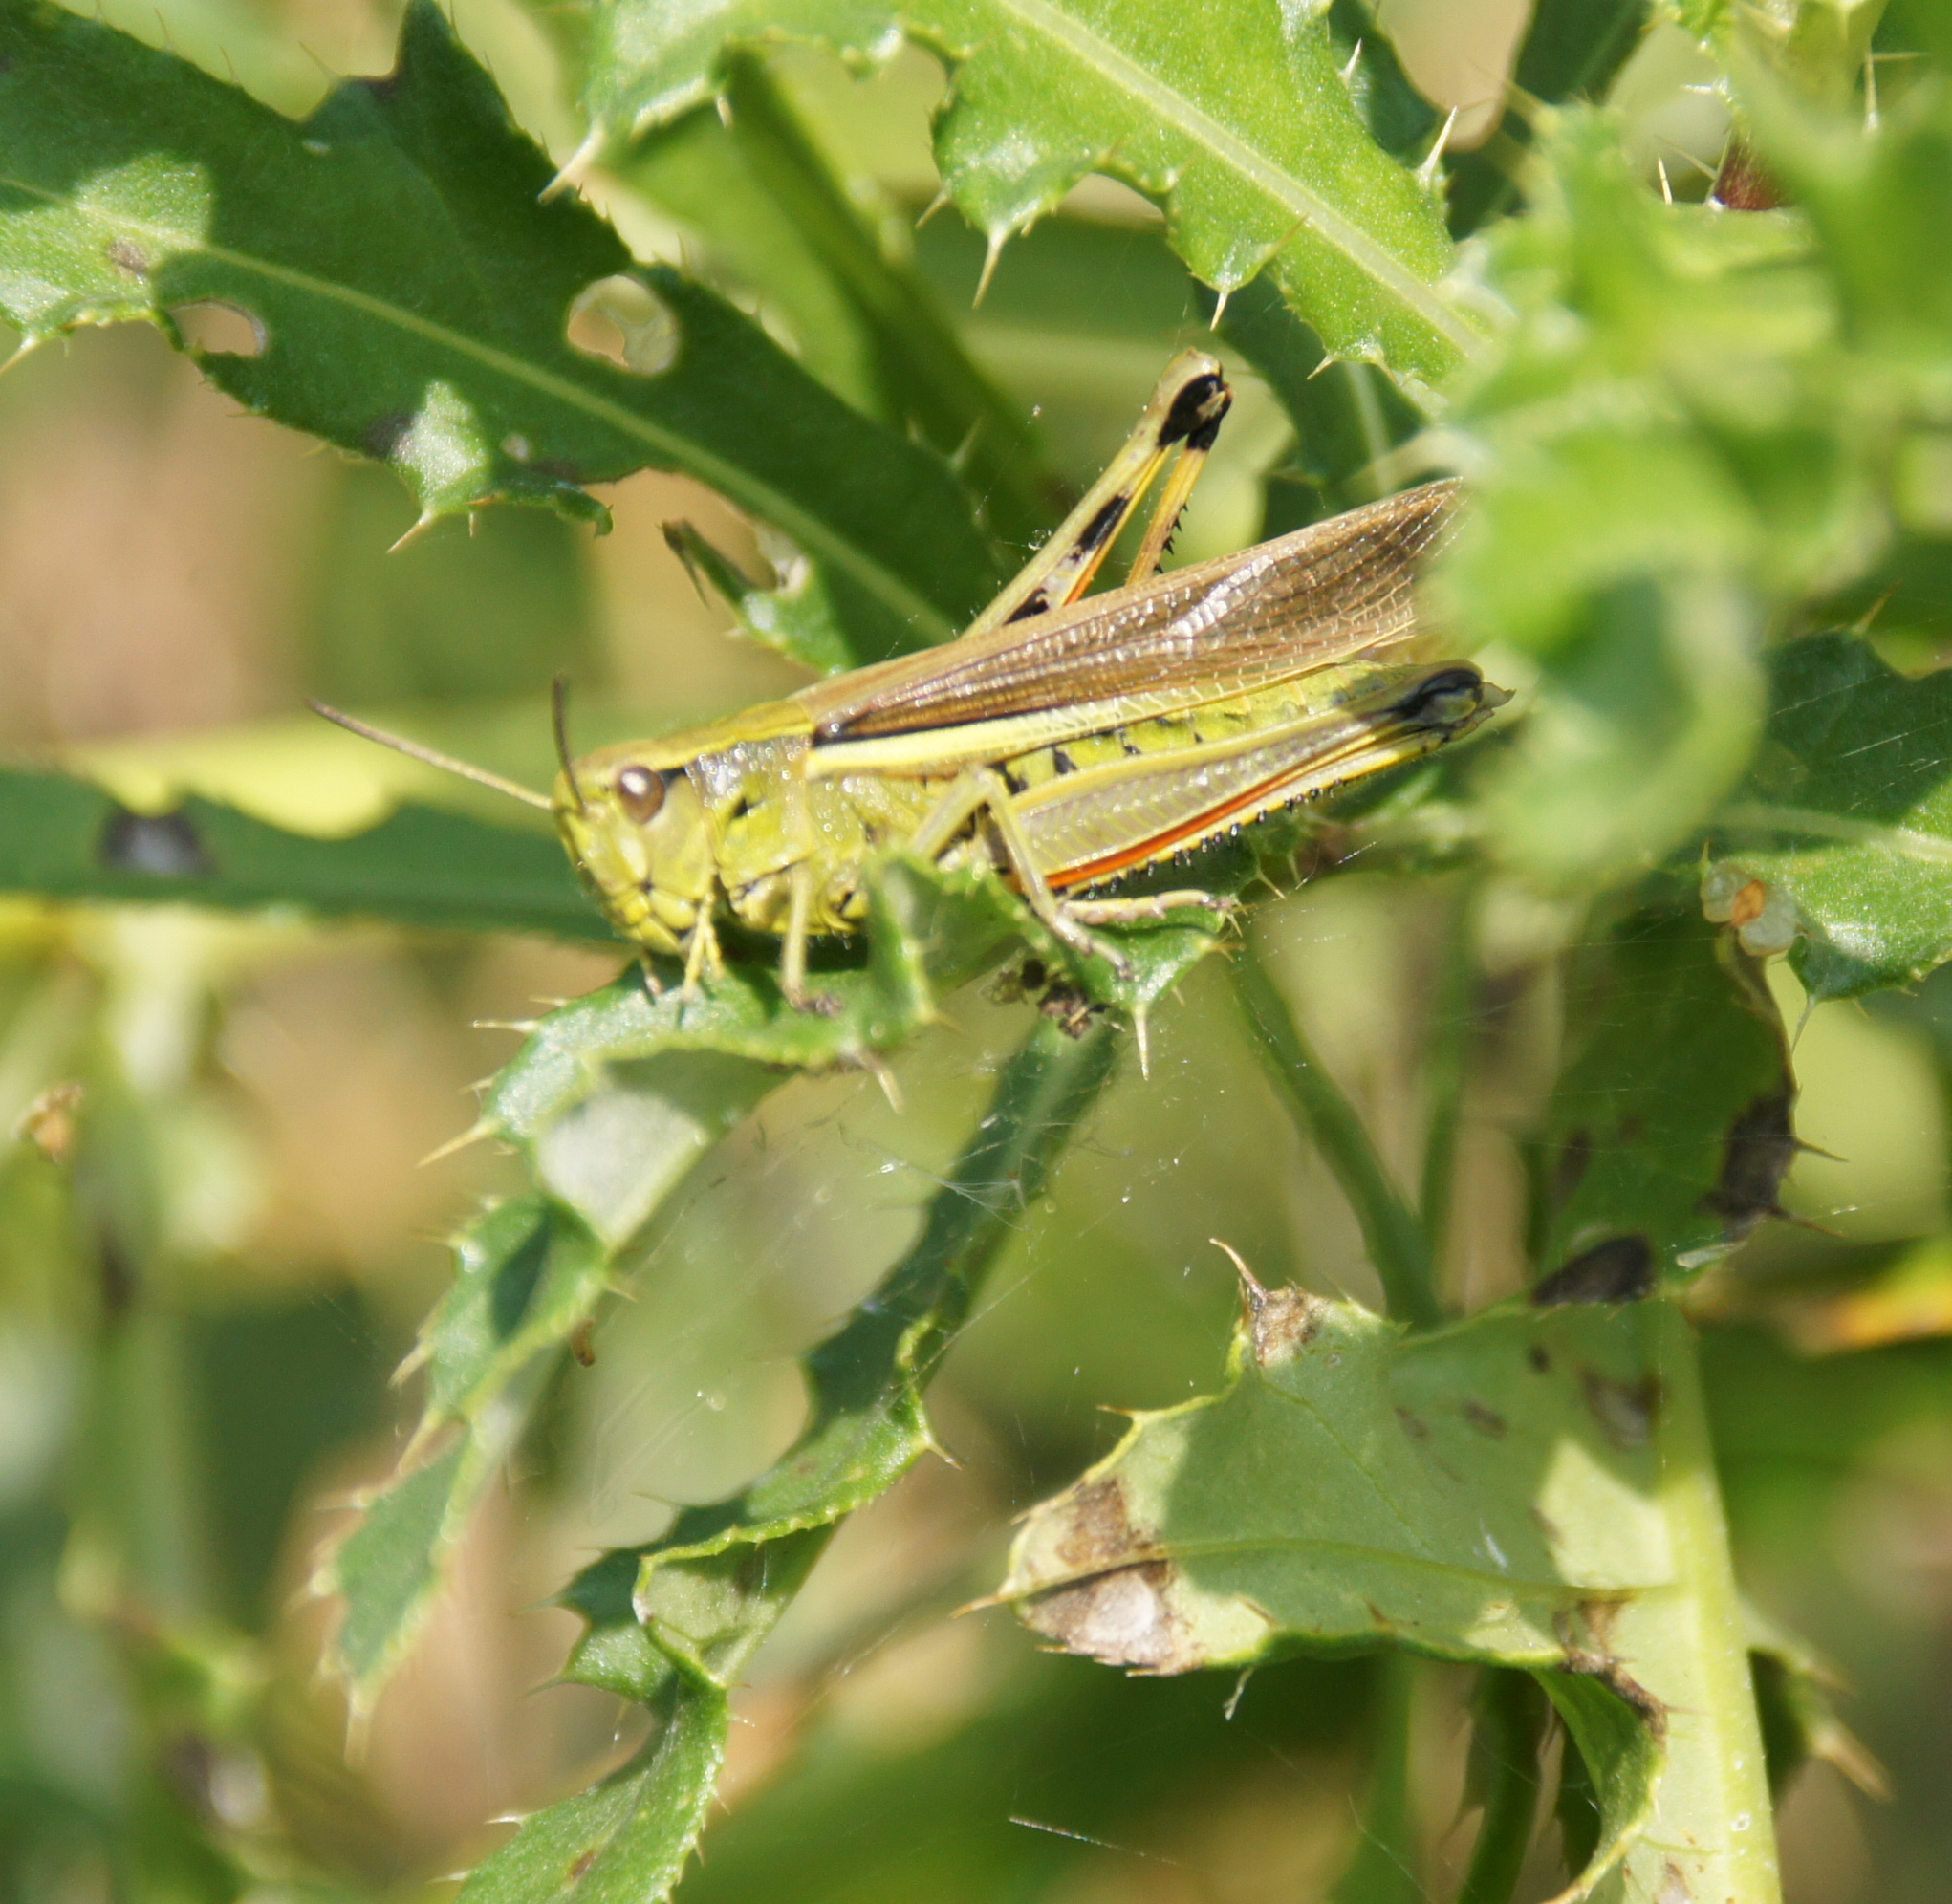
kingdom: Animalia
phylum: Arthropoda
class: Insecta
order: Orthoptera
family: Acrididae
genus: Stethophyma
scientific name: Stethophyma grossum
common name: Large marsh grasshopper
